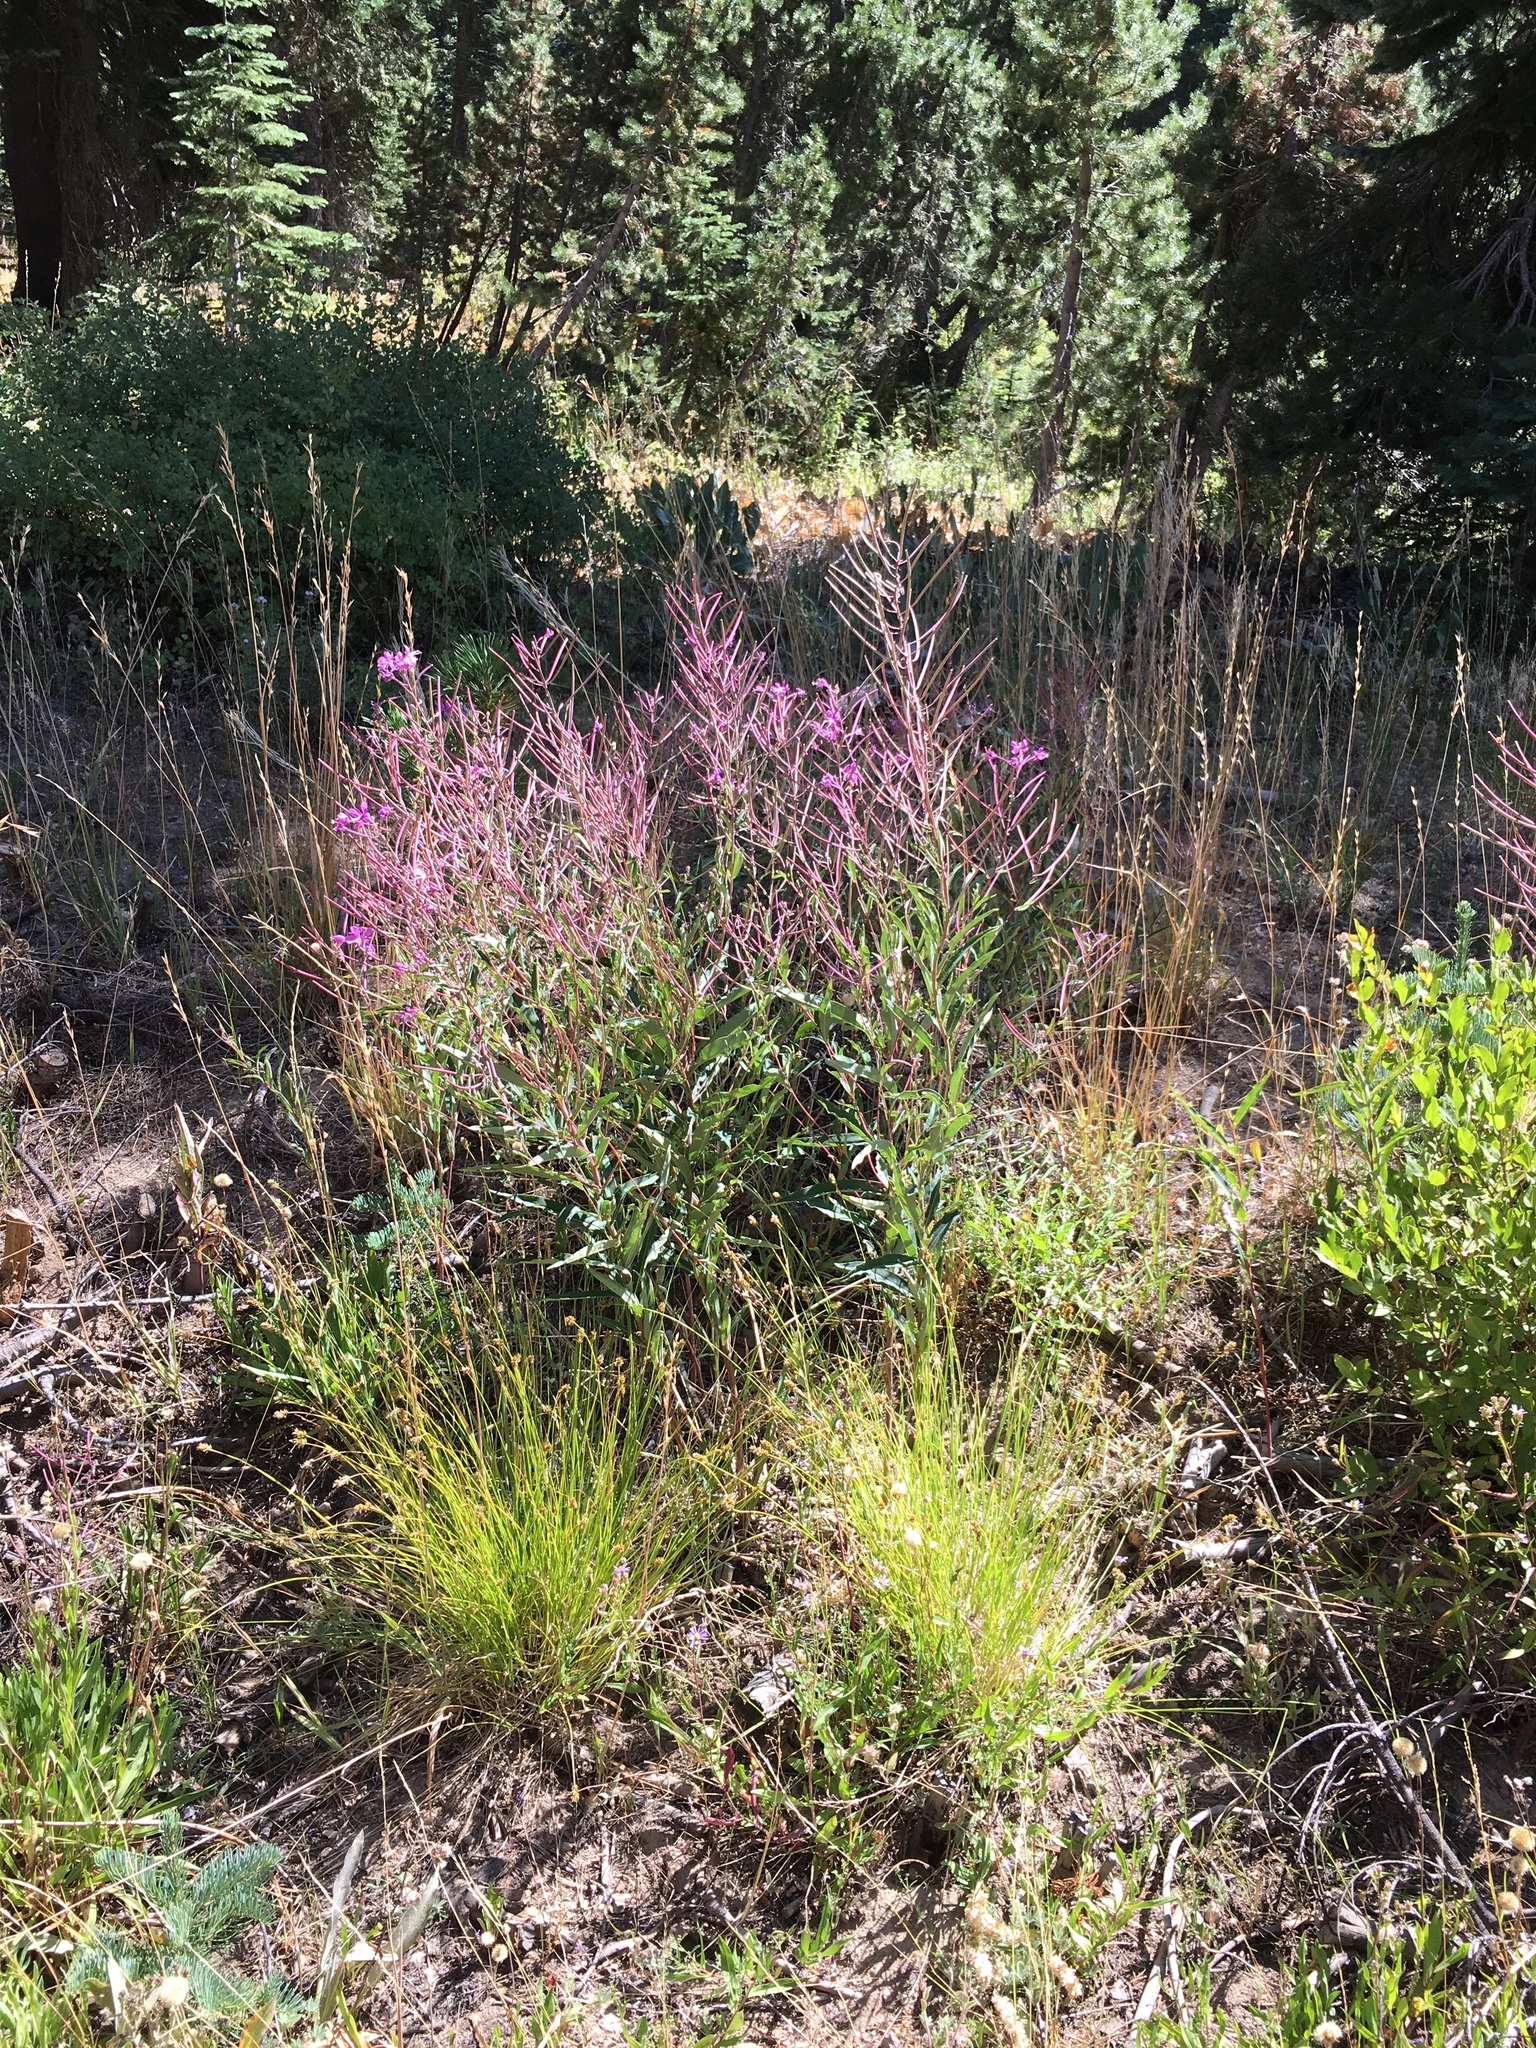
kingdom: Plantae
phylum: Tracheophyta
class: Magnoliopsida
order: Myrtales
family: Onagraceae
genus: Chamaenerion
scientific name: Chamaenerion angustifolium
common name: Fireweed
